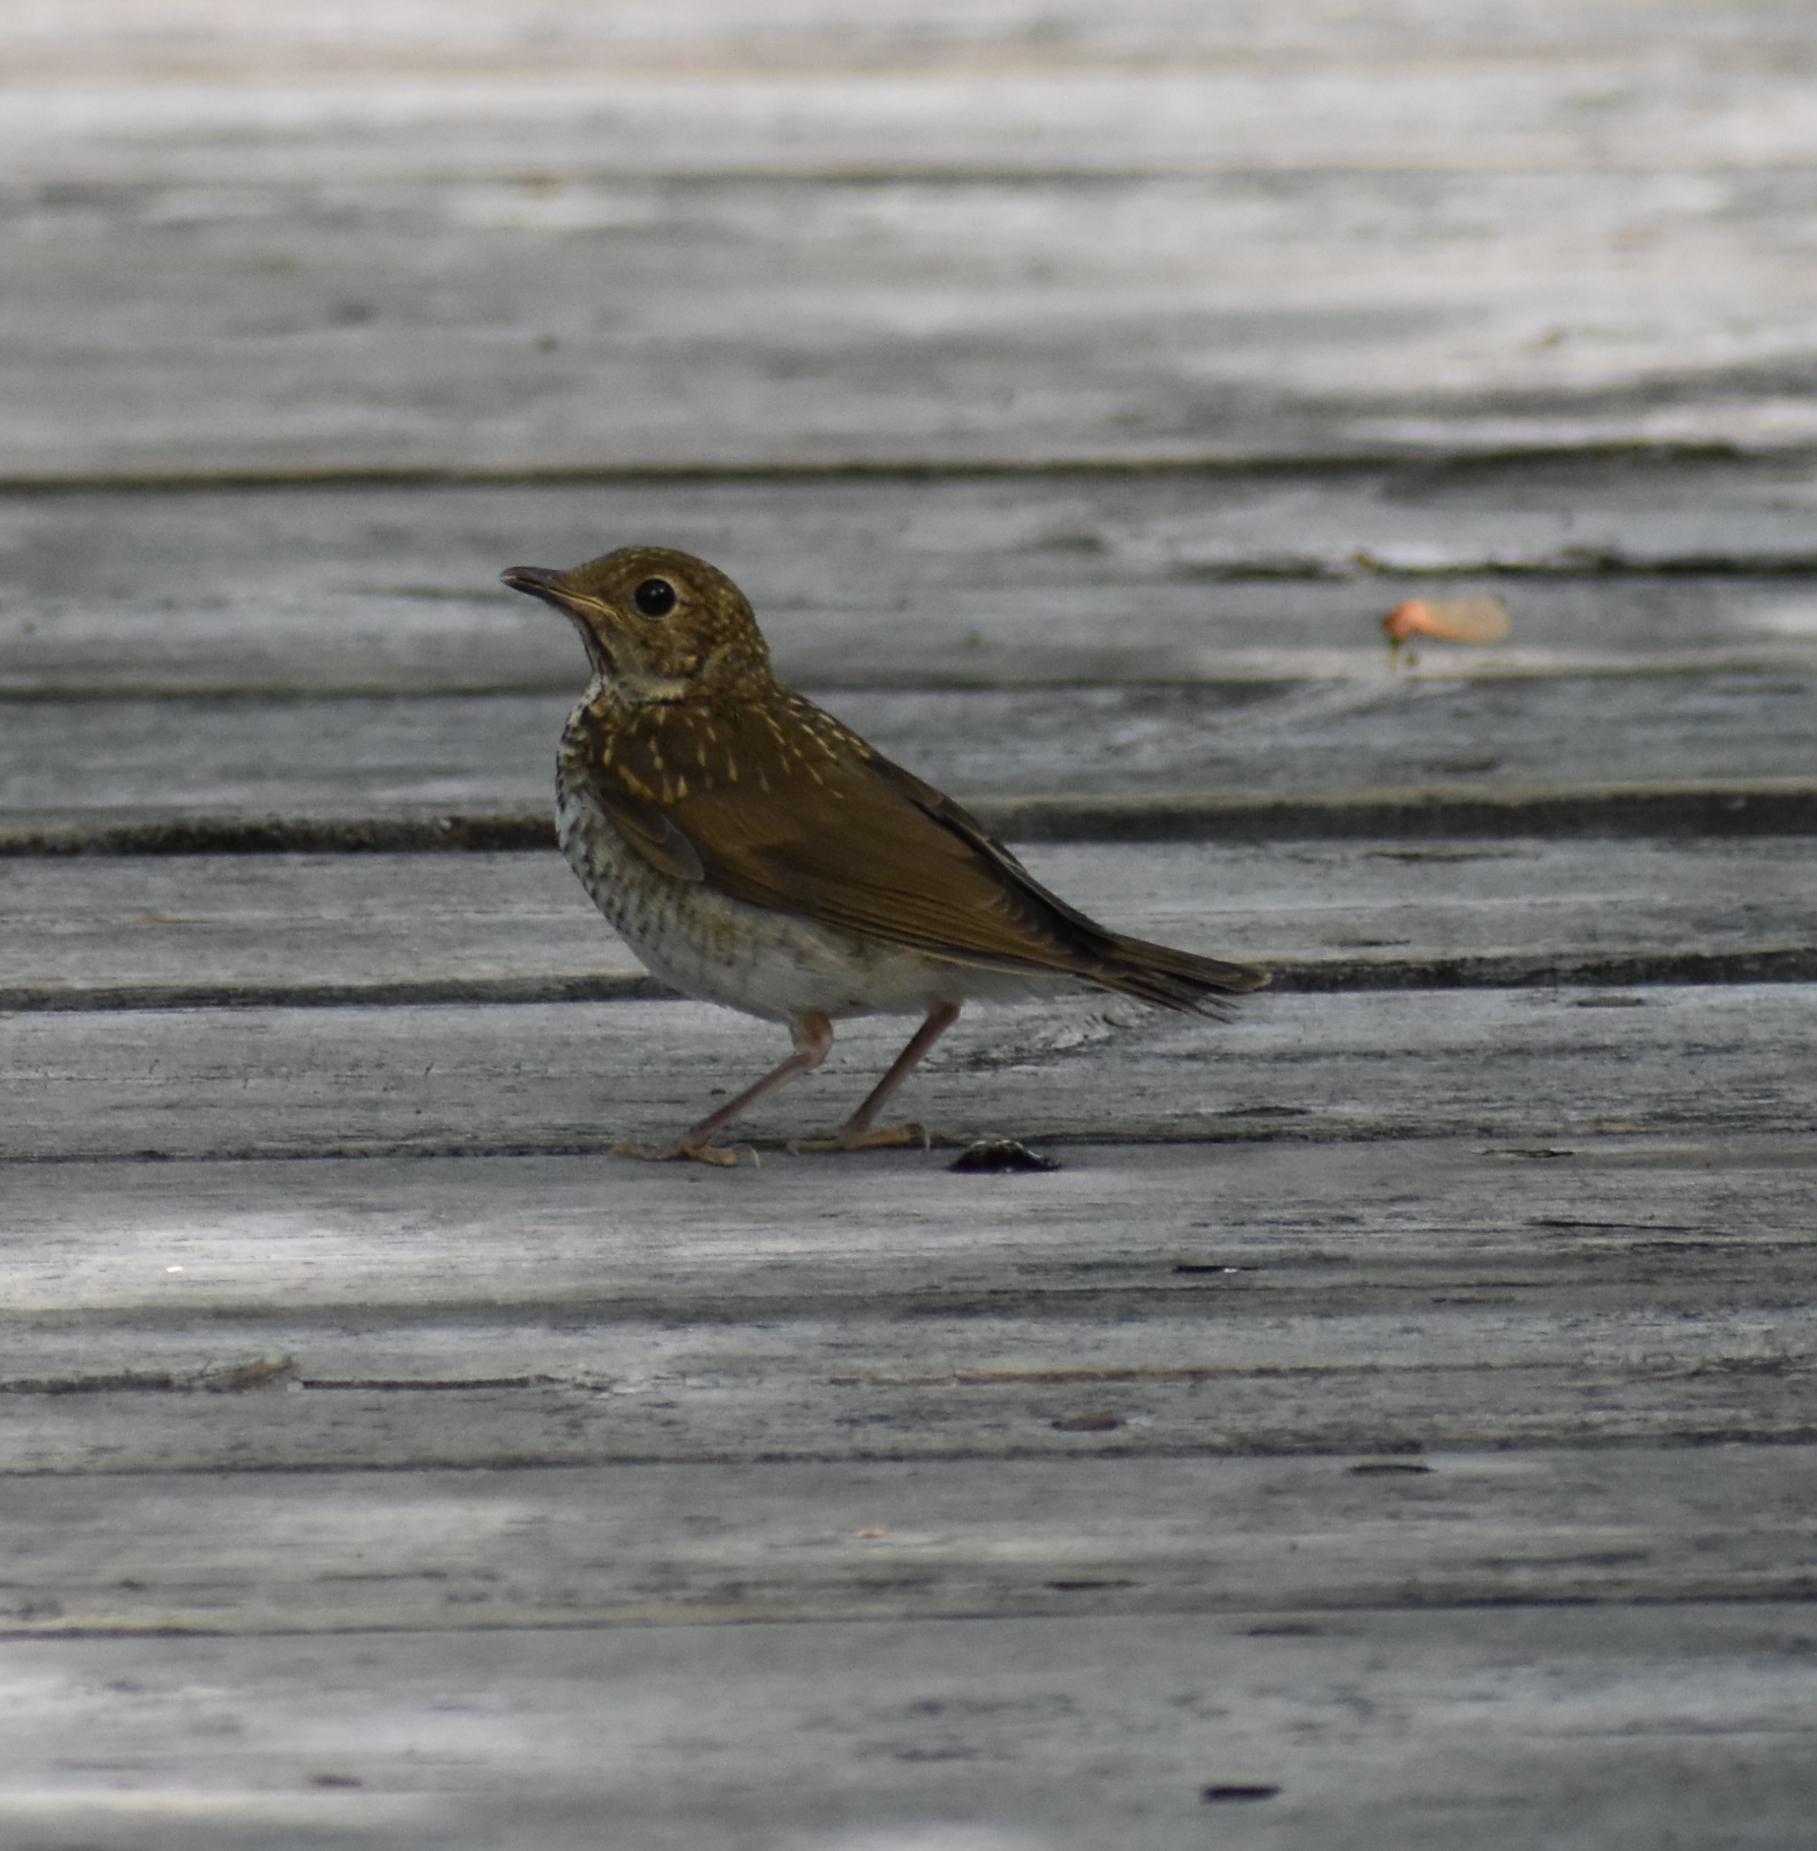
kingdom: Animalia
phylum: Chordata
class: Aves
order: Passeriformes
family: Turdidae
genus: Catharus
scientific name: Catharus fuscescens
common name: Veery
